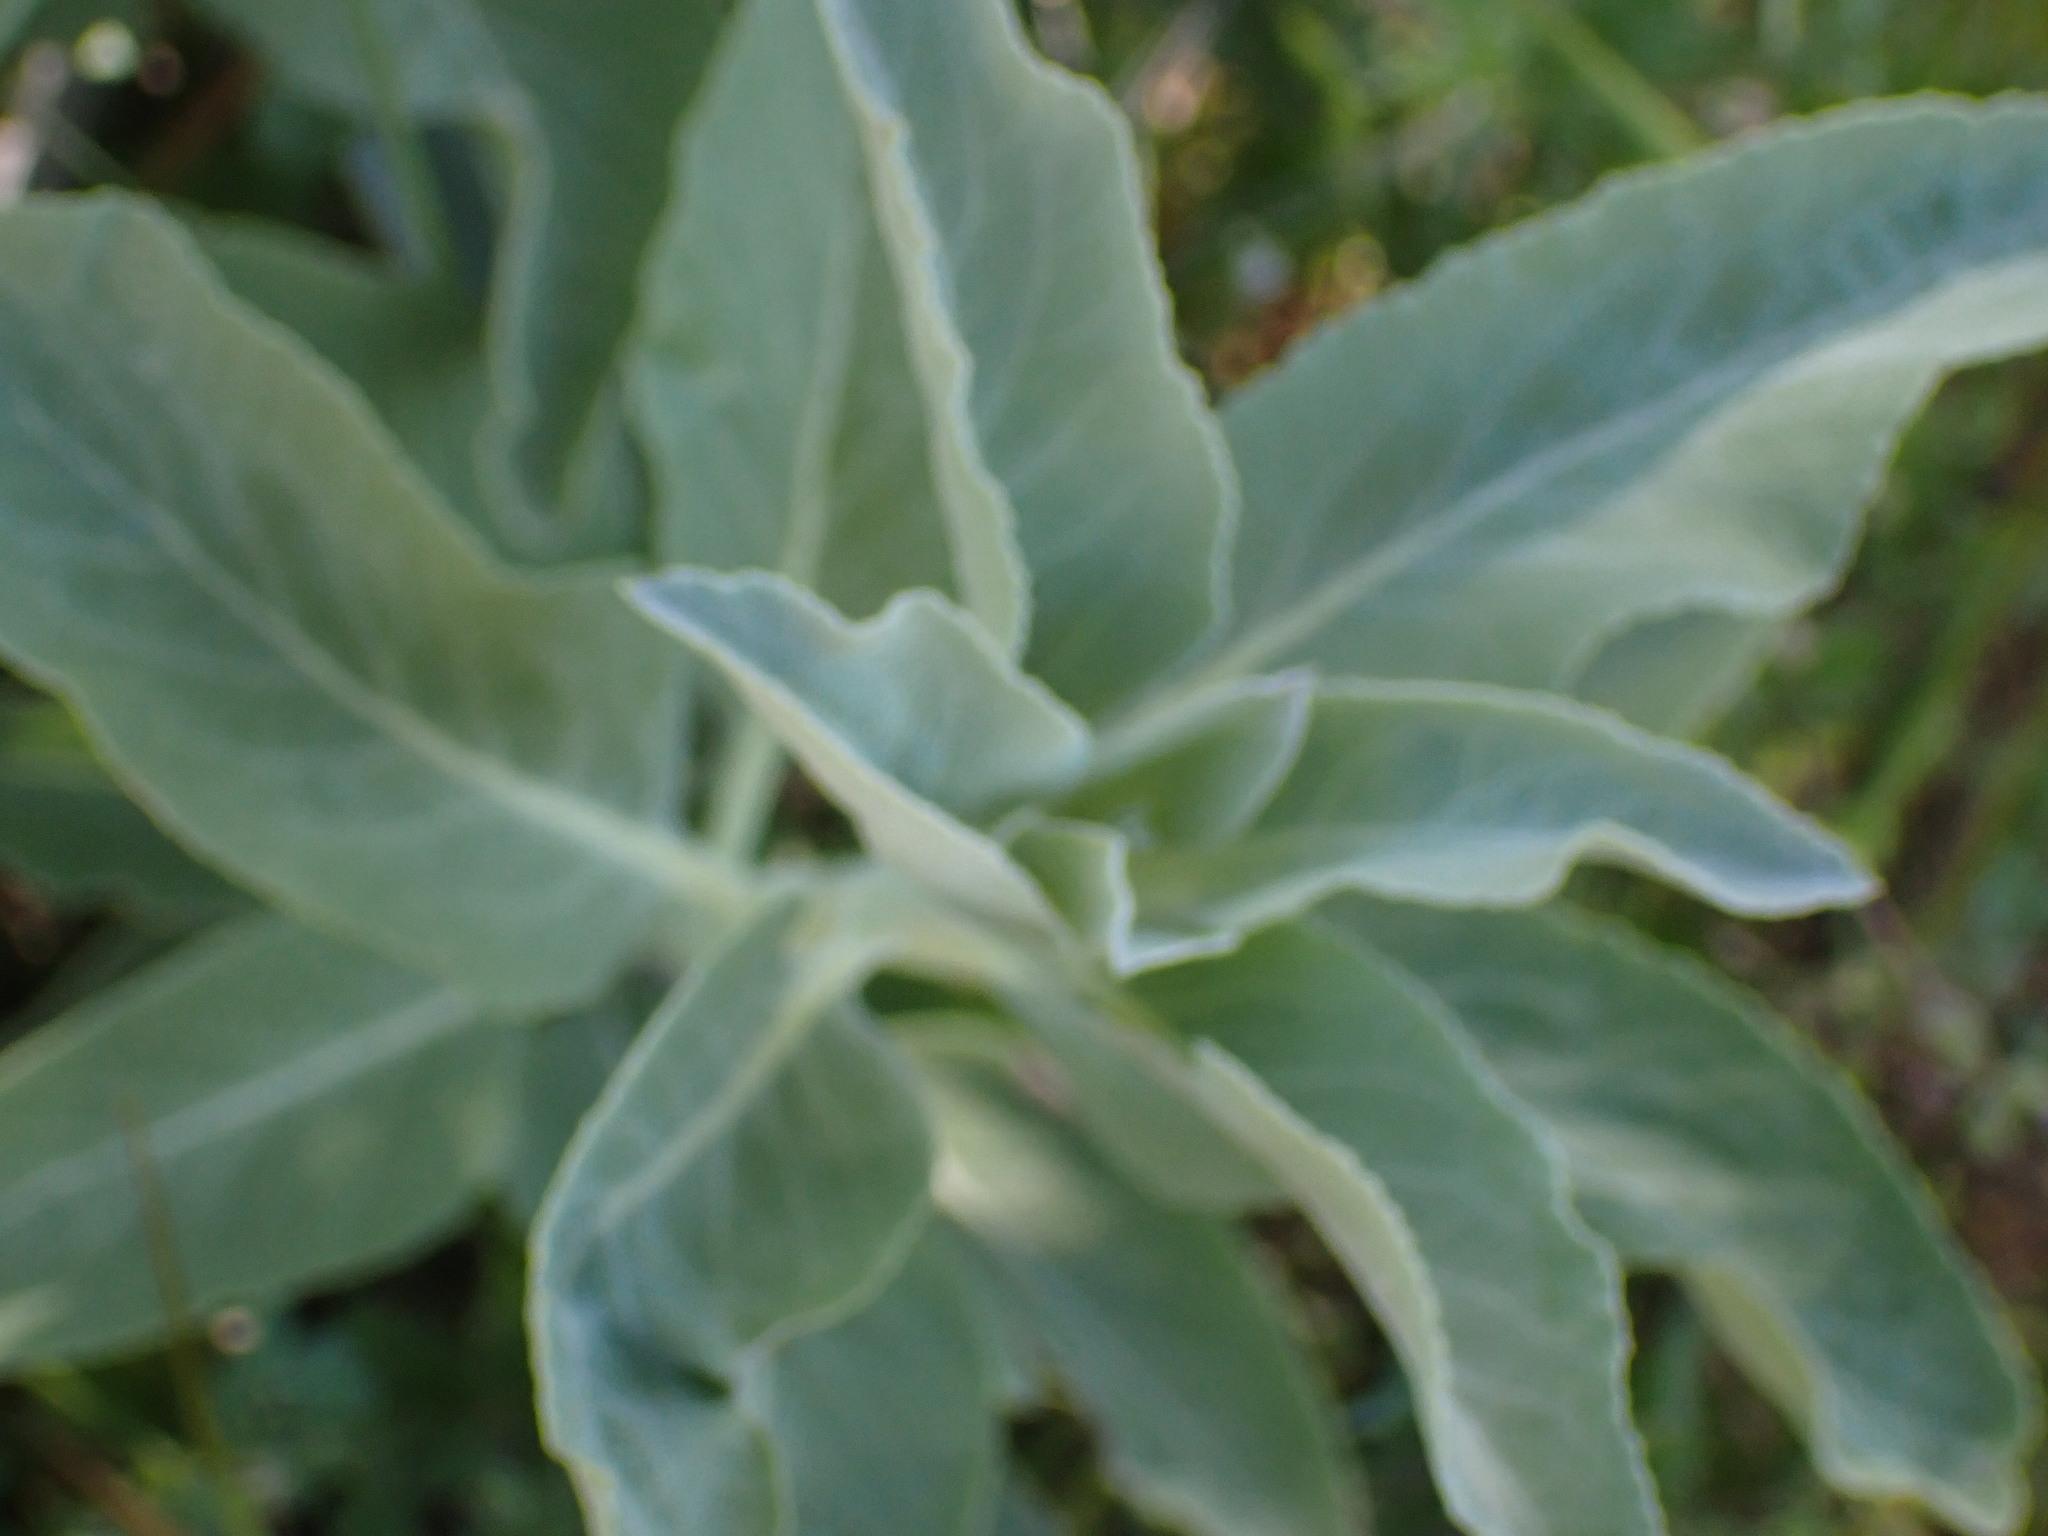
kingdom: Plantae
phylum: Tracheophyta
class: Magnoliopsida
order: Lamiales
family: Lamiaceae
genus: Salvia
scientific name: Salvia apiana
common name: White sage
